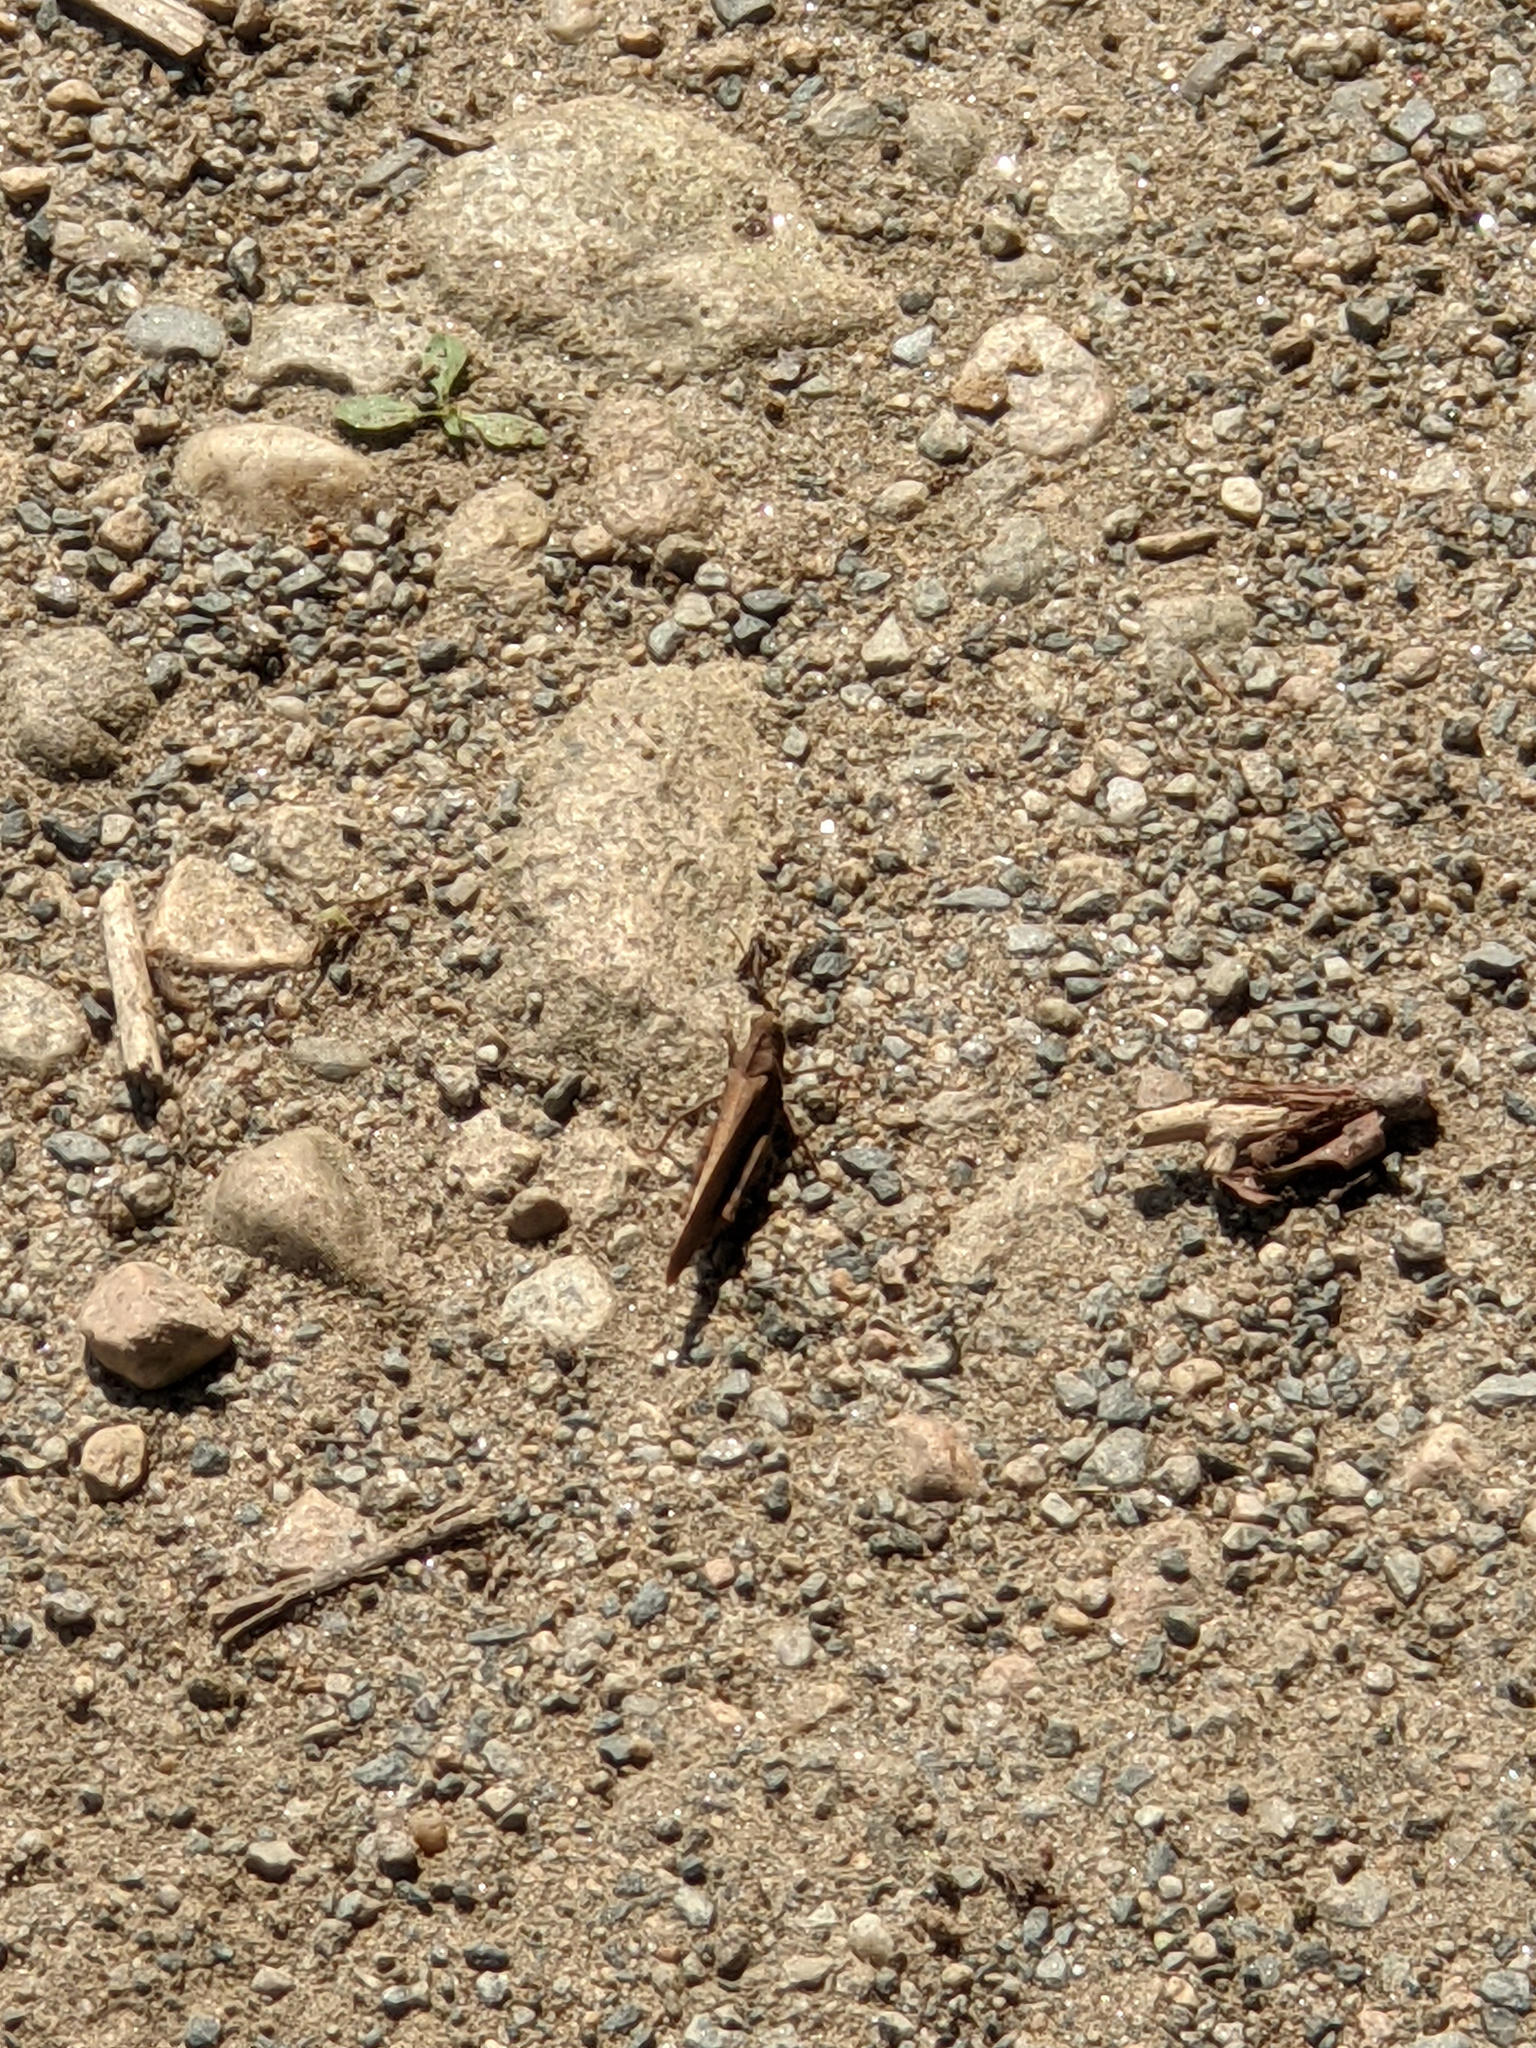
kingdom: Animalia
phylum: Arthropoda
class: Insecta
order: Orthoptera
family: Acrididae
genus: Dissosteira
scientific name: Dissosteira carolina
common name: Carolina grasshopper
